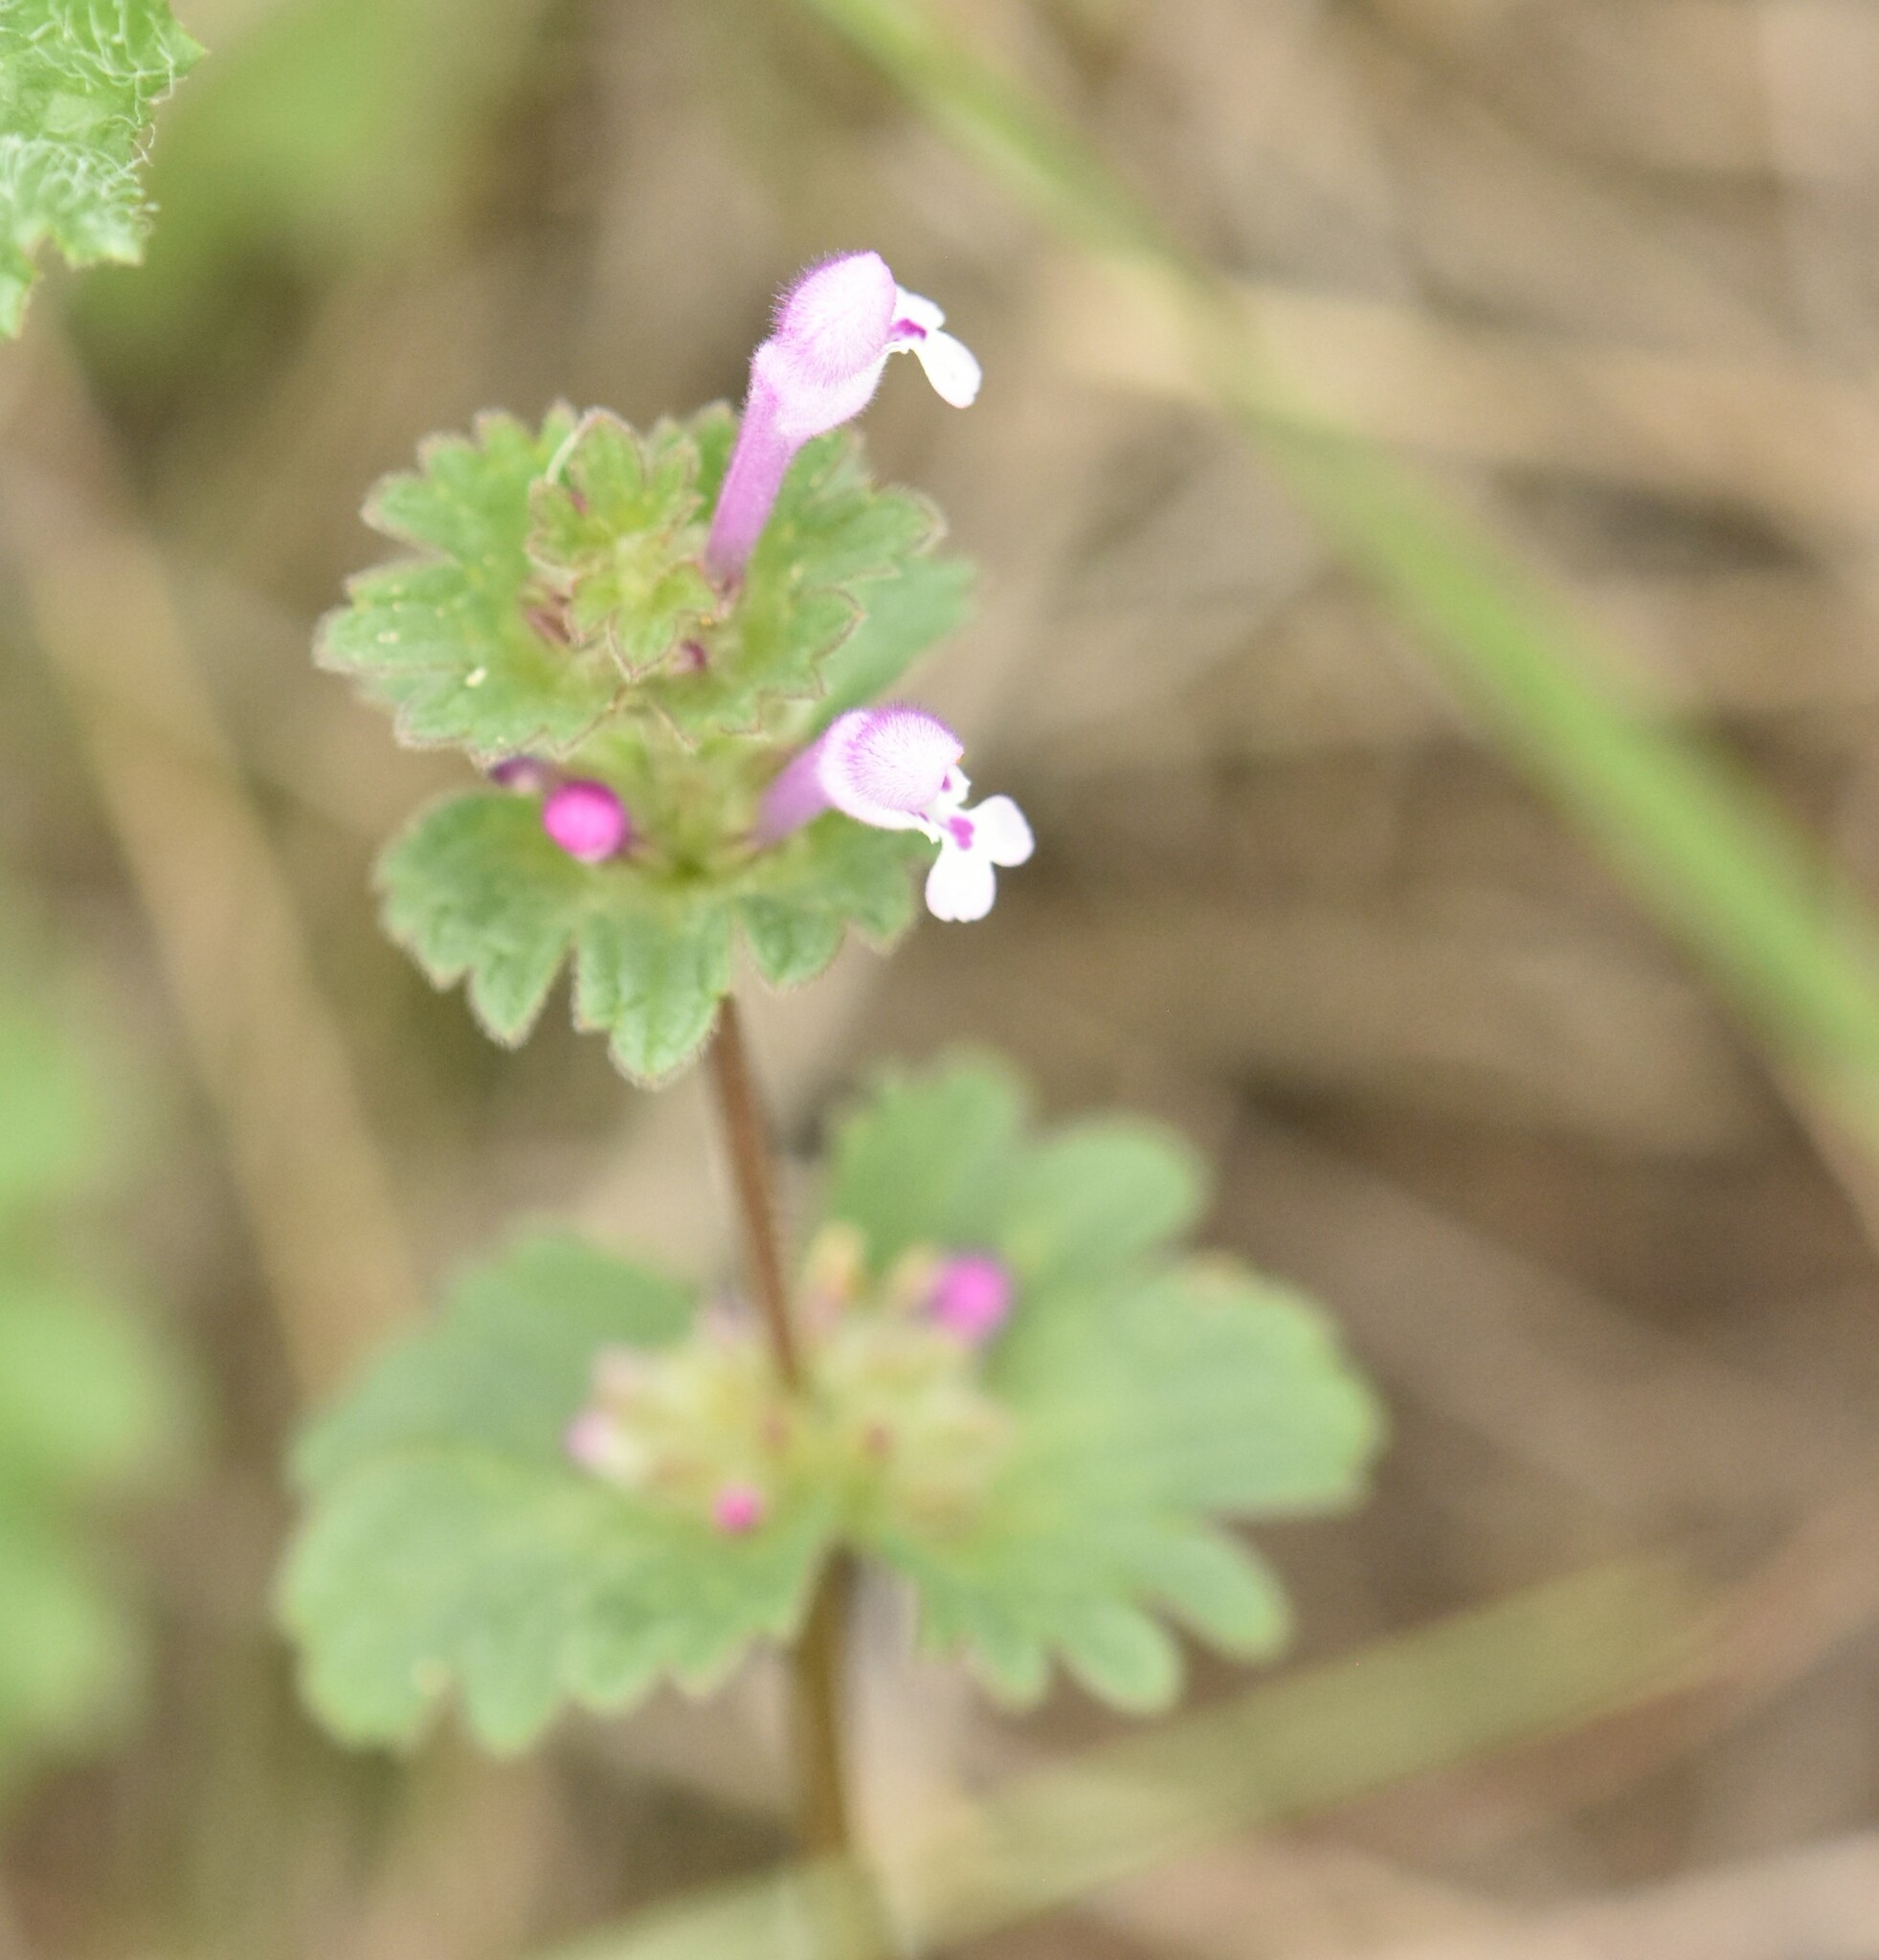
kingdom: Plantae
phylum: Tracheophyta
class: Magnoliopsida
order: Lamiales
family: Lamiaceae
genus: Lamium
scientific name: Lamium amplexicaule
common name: Henbit dead-nettle
